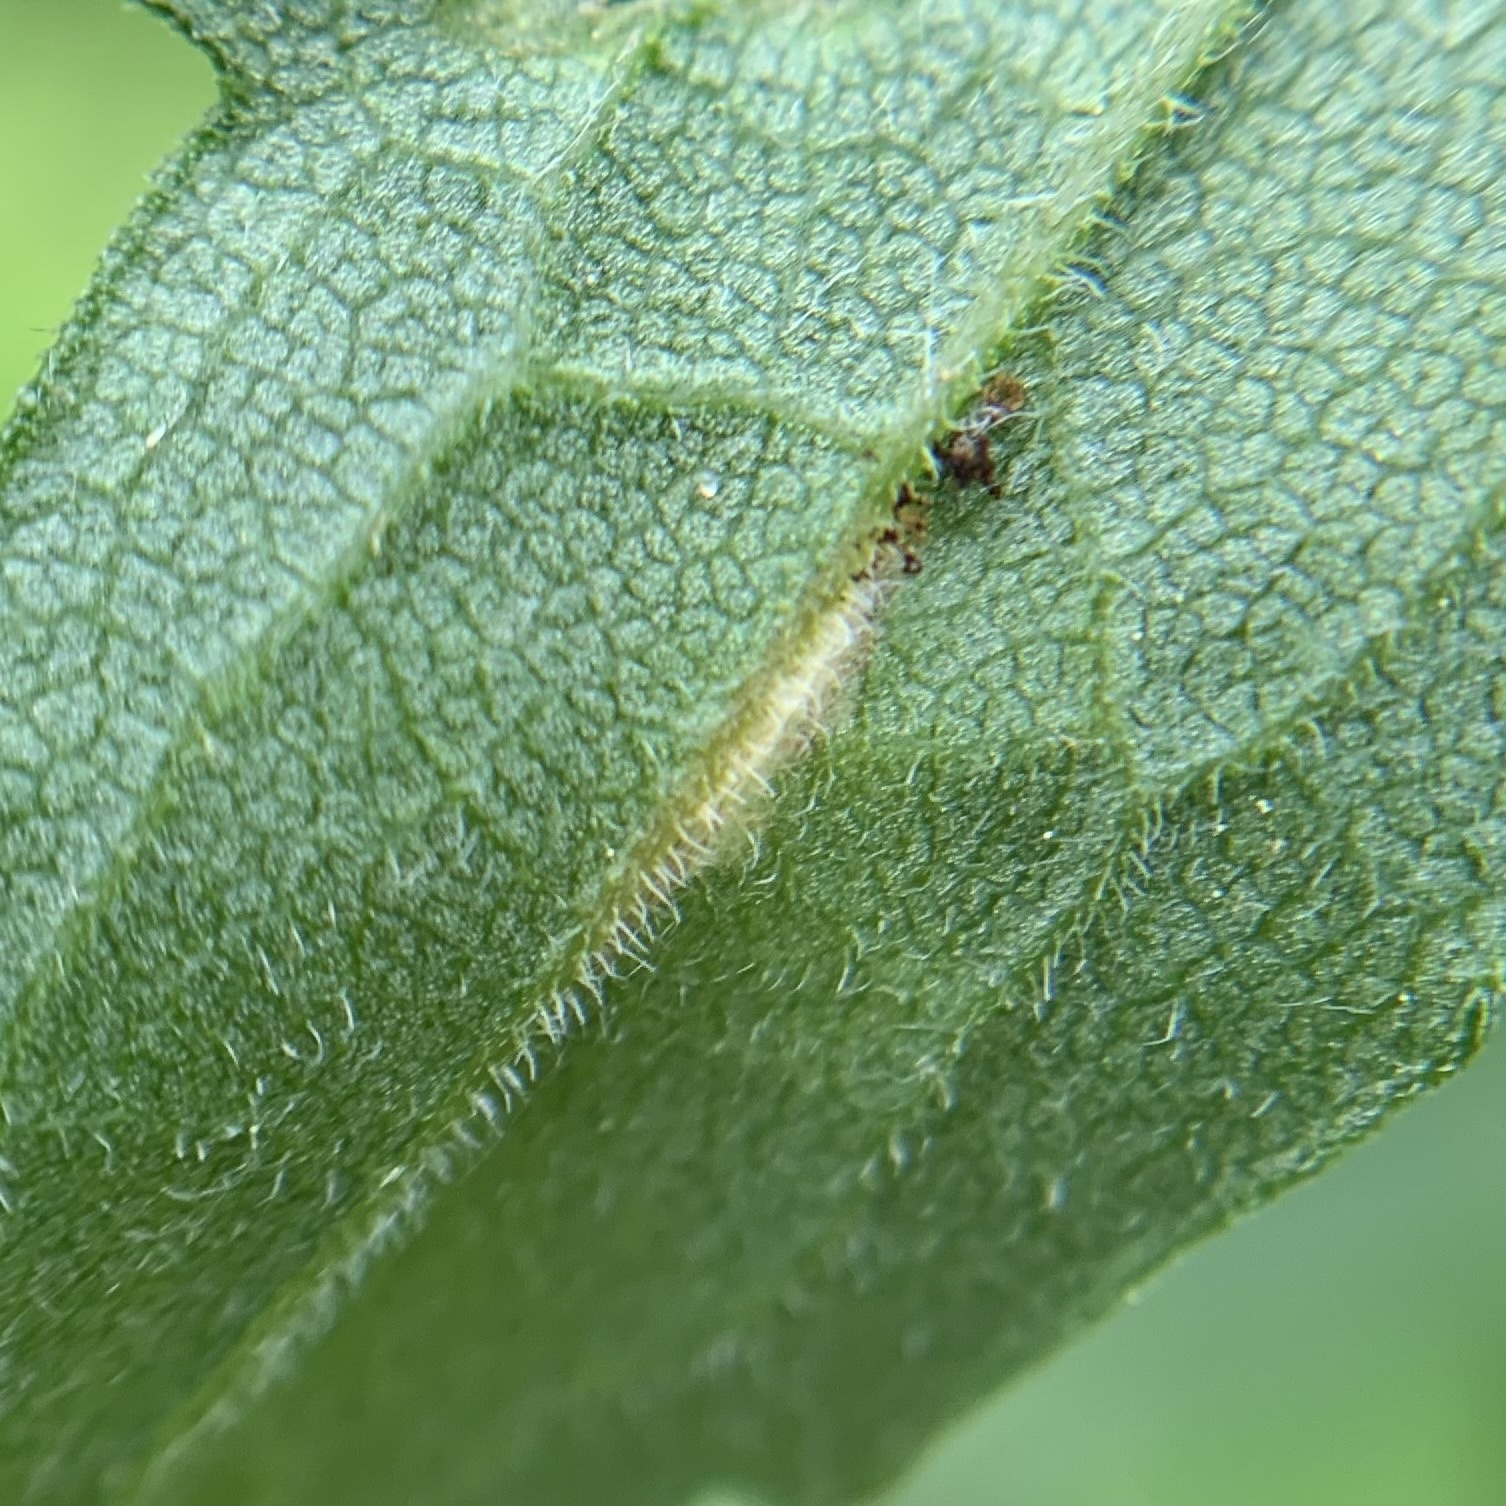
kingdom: Animalia
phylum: Arthropoda
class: Insecta
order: Lepidoptera
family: Gelechiidae
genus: Scrobipalpula
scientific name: Scrobipalpula sacculicola
